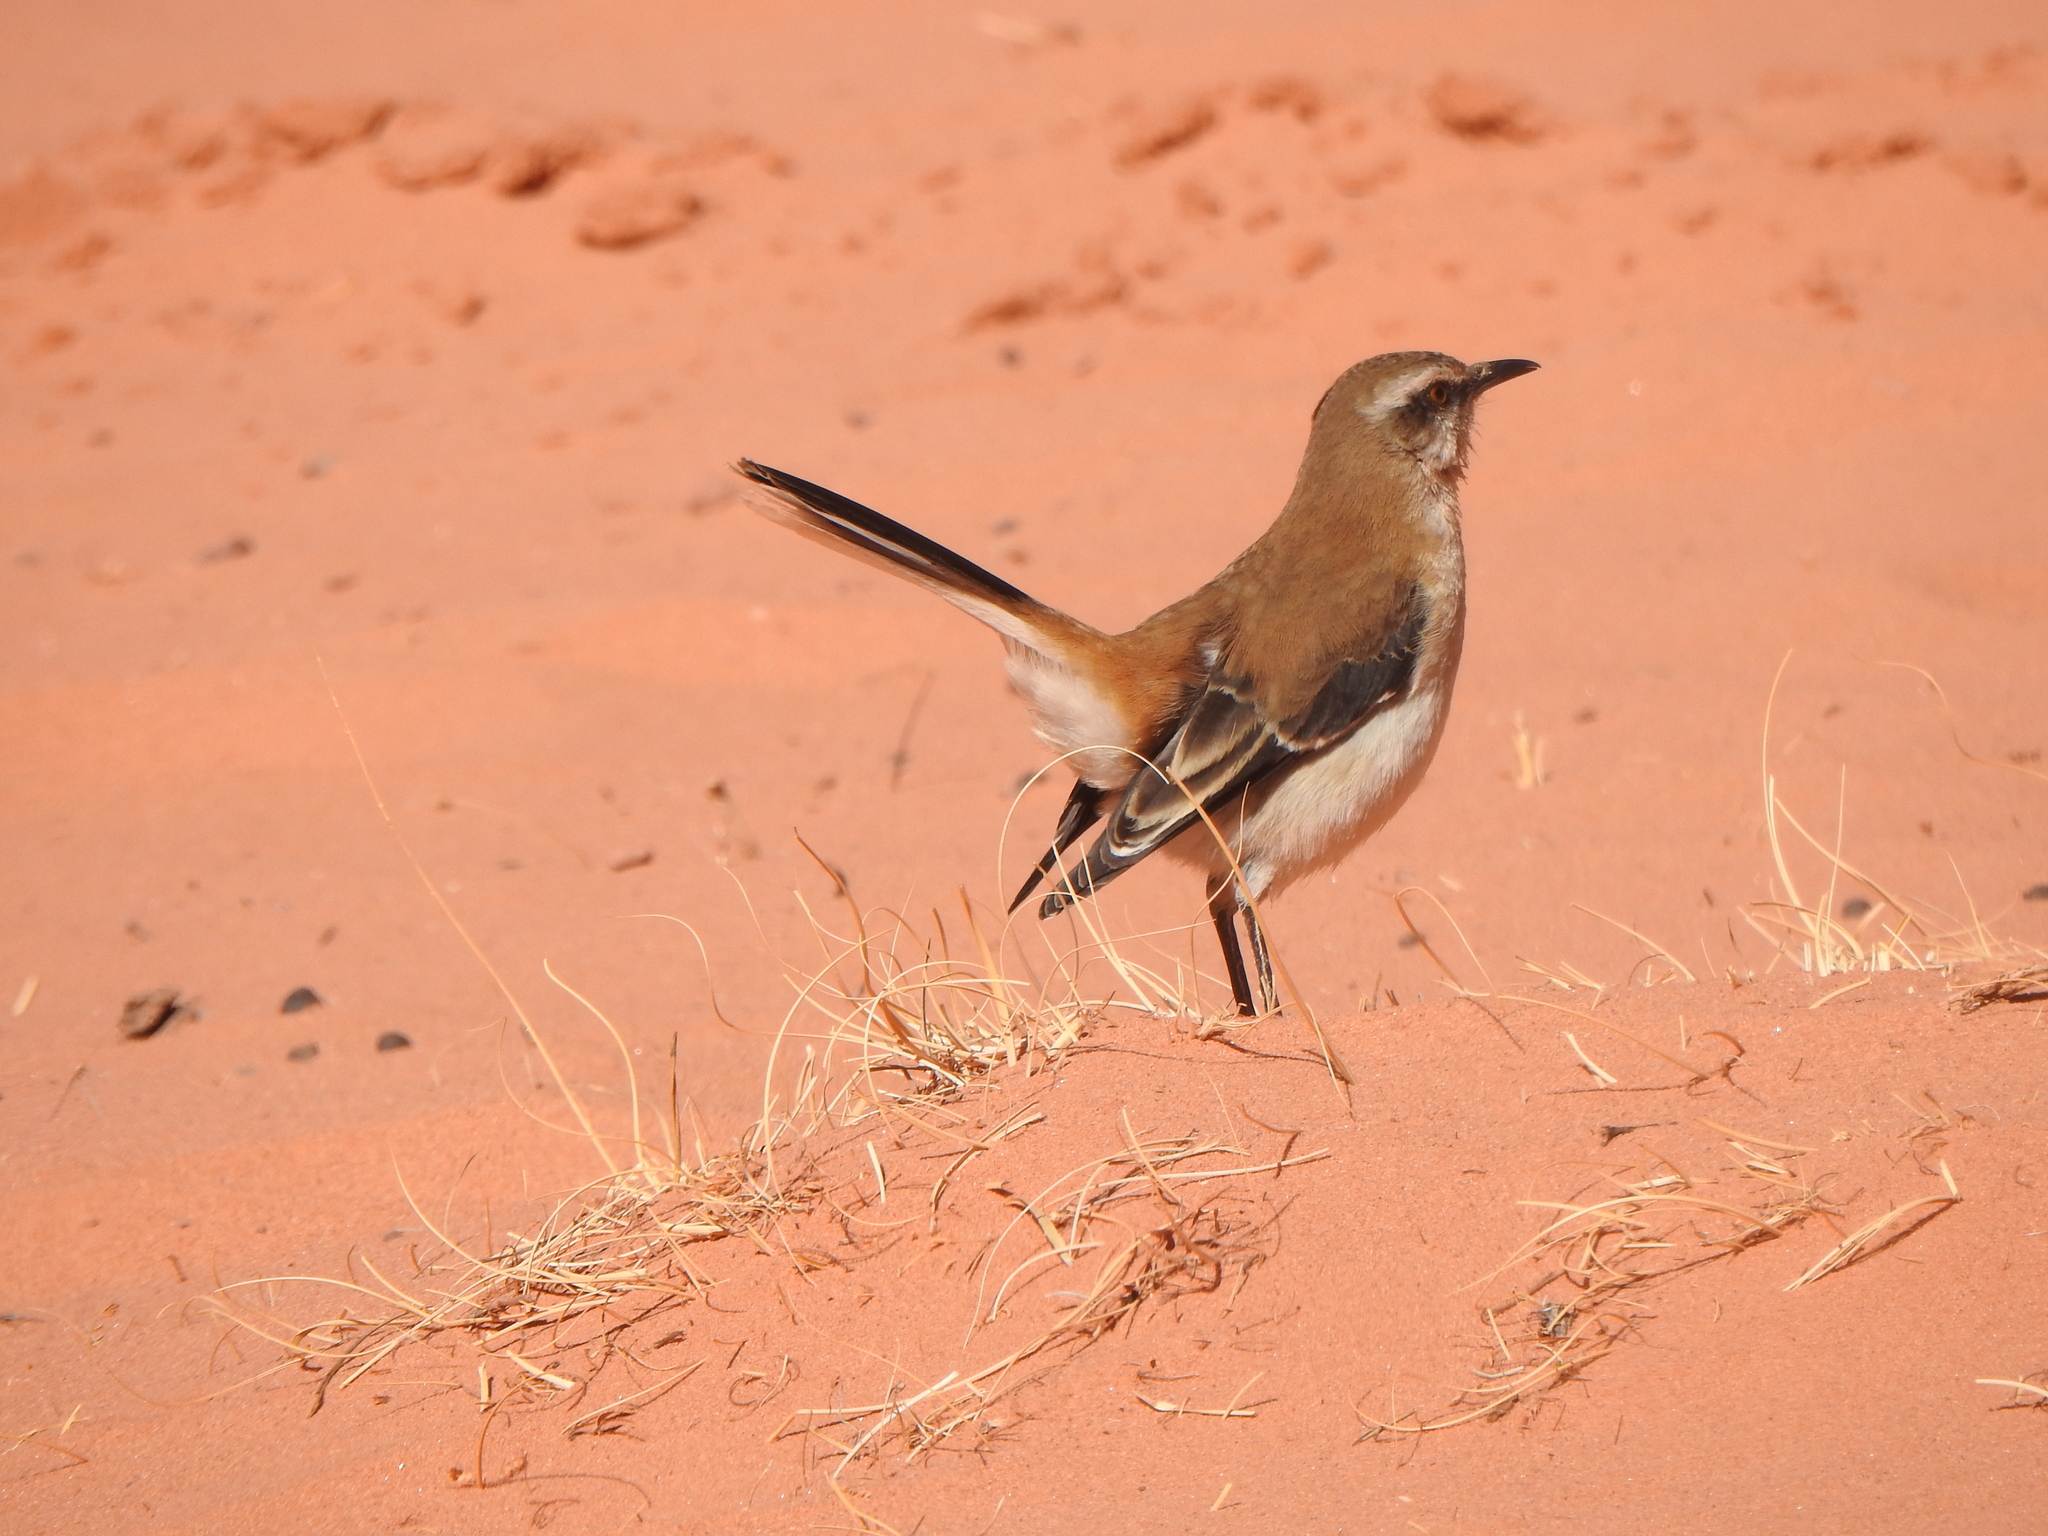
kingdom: Animalia
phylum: Chordata
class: Aves
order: Passeriformes
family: Mimidae
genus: Mimus
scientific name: Mimus dorsalis
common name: Brown-backed mockingbird
